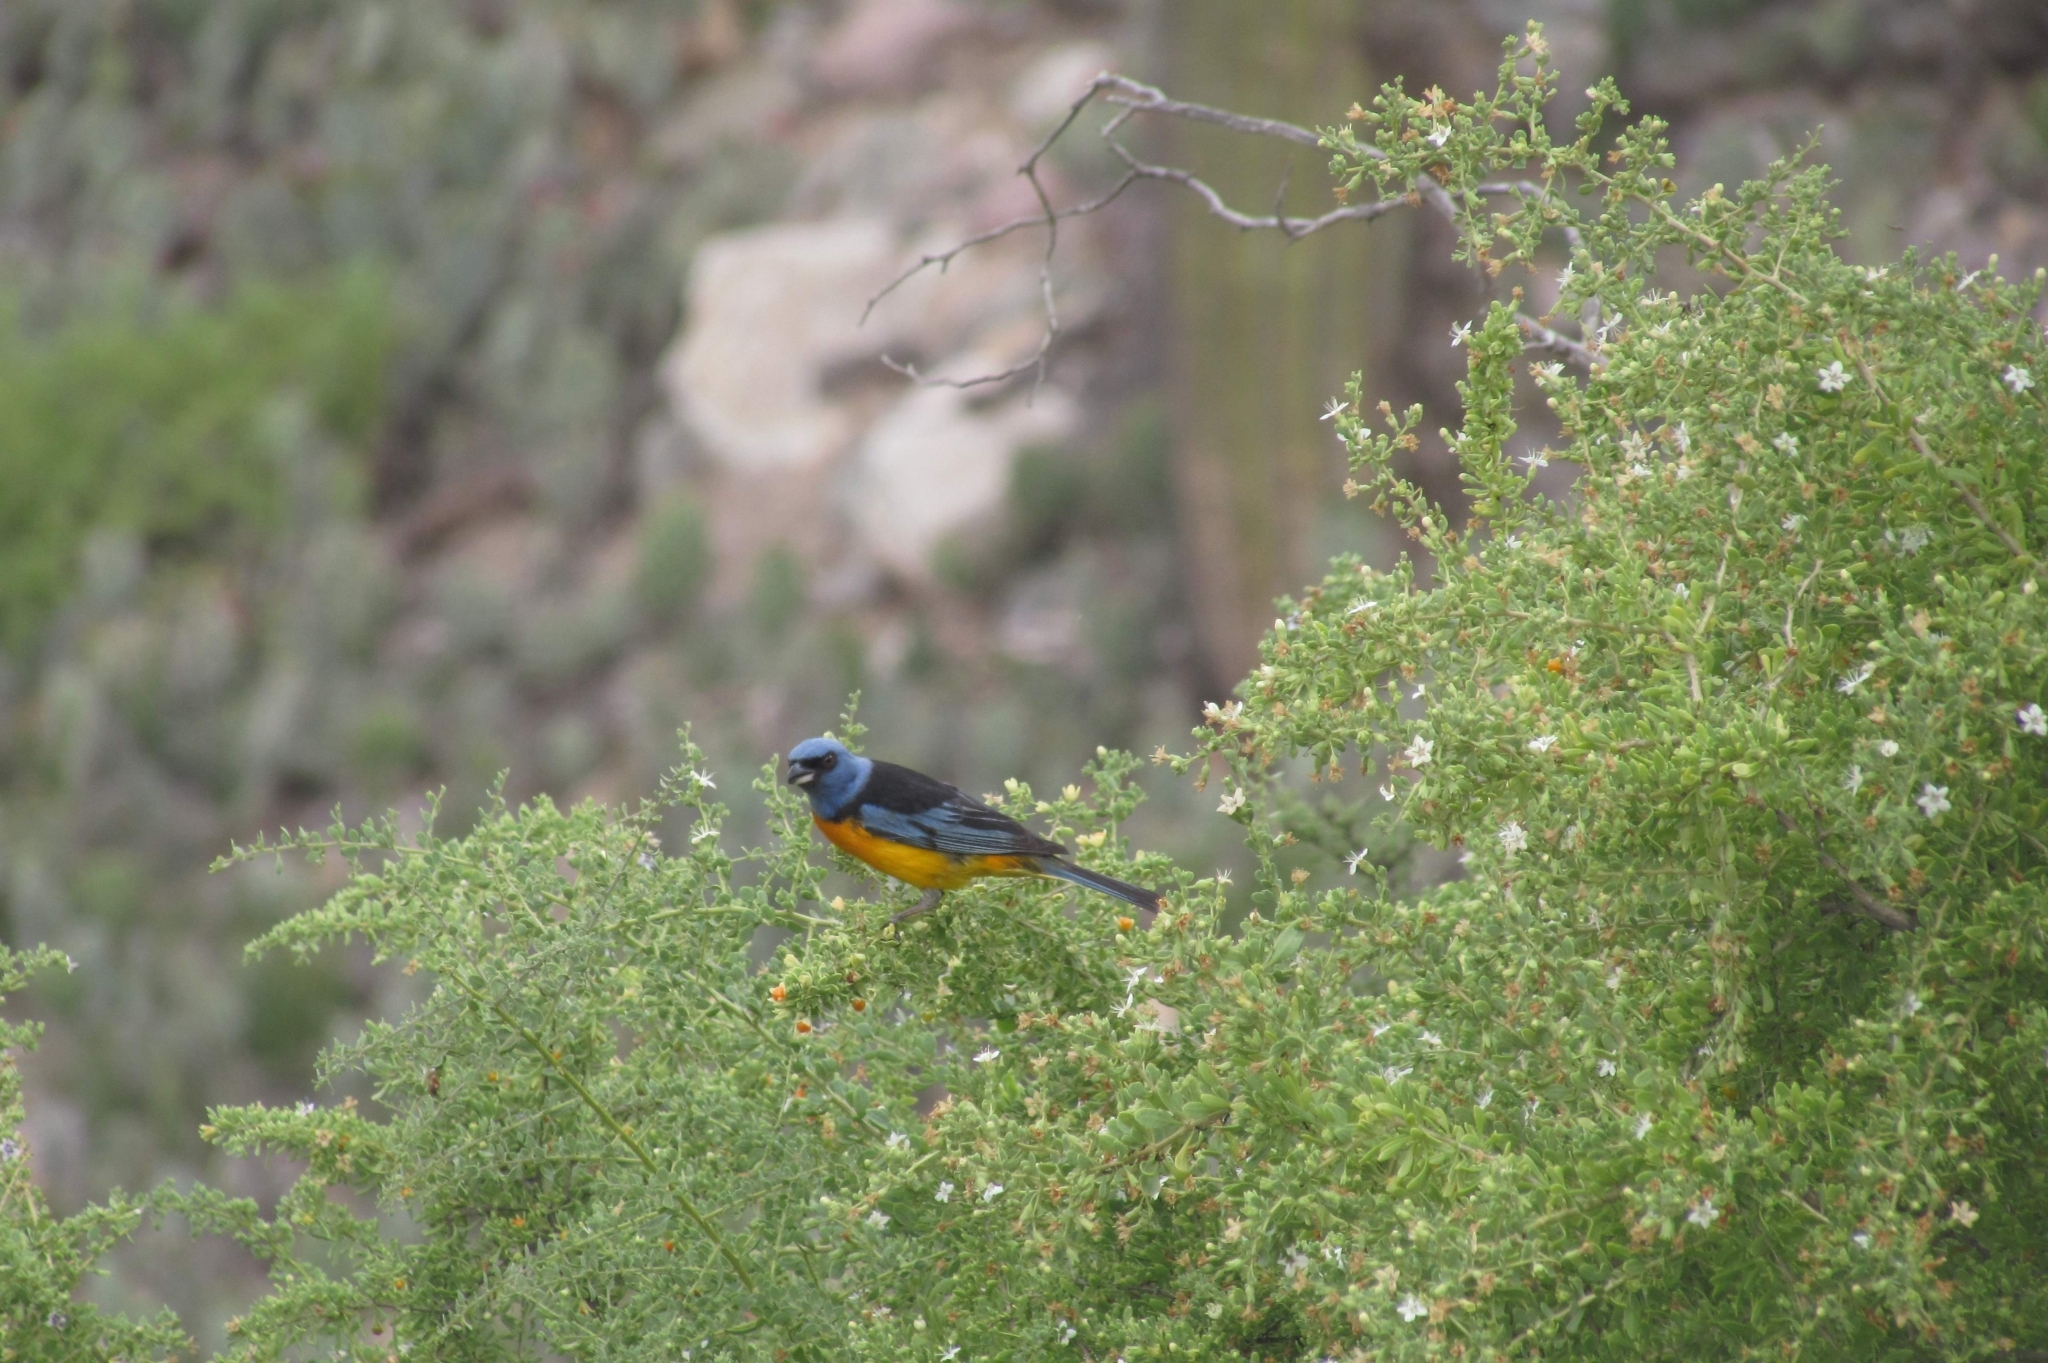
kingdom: Animalia
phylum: Chordata
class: Aves
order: Passeriformes
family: Thraupidae
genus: Rauenia
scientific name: Rauenia bonariensis
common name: Blue-and-yellow tanager
